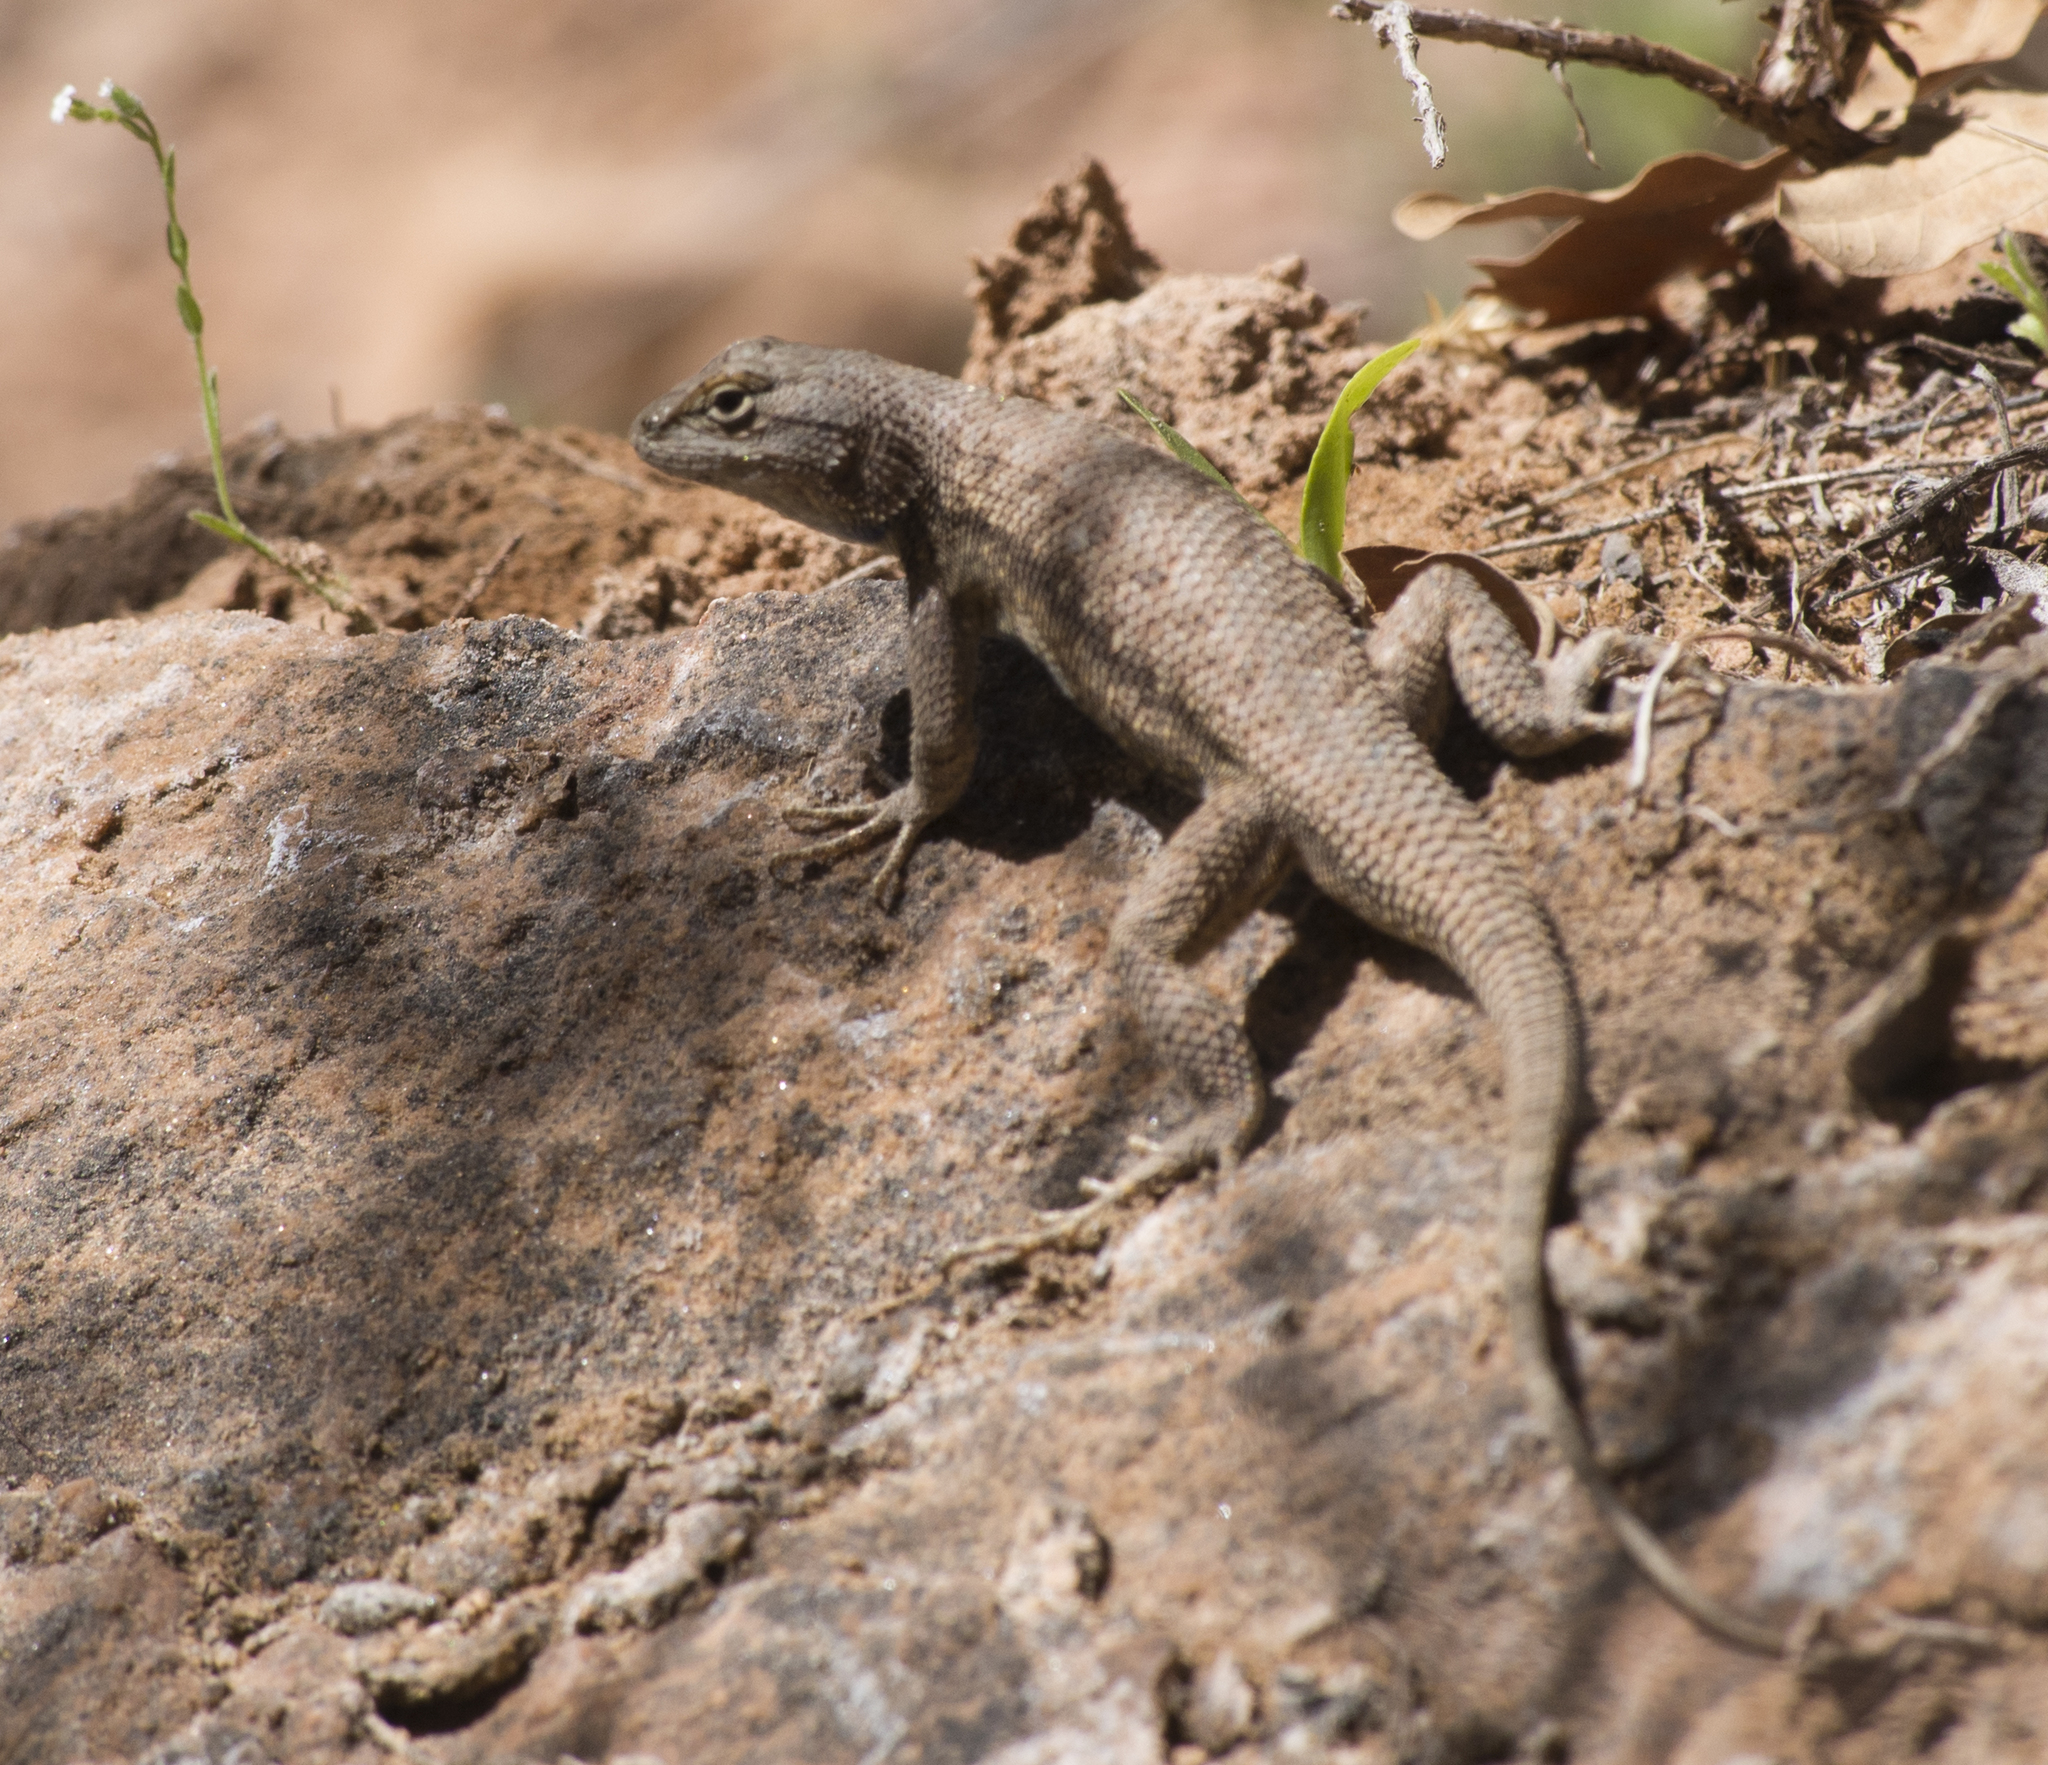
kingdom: Animalia
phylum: Chordata
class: Squamata
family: Phrynosomatidae
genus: Sceloporus
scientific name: Sceloporus tristichus
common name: Plateau fence lizard
